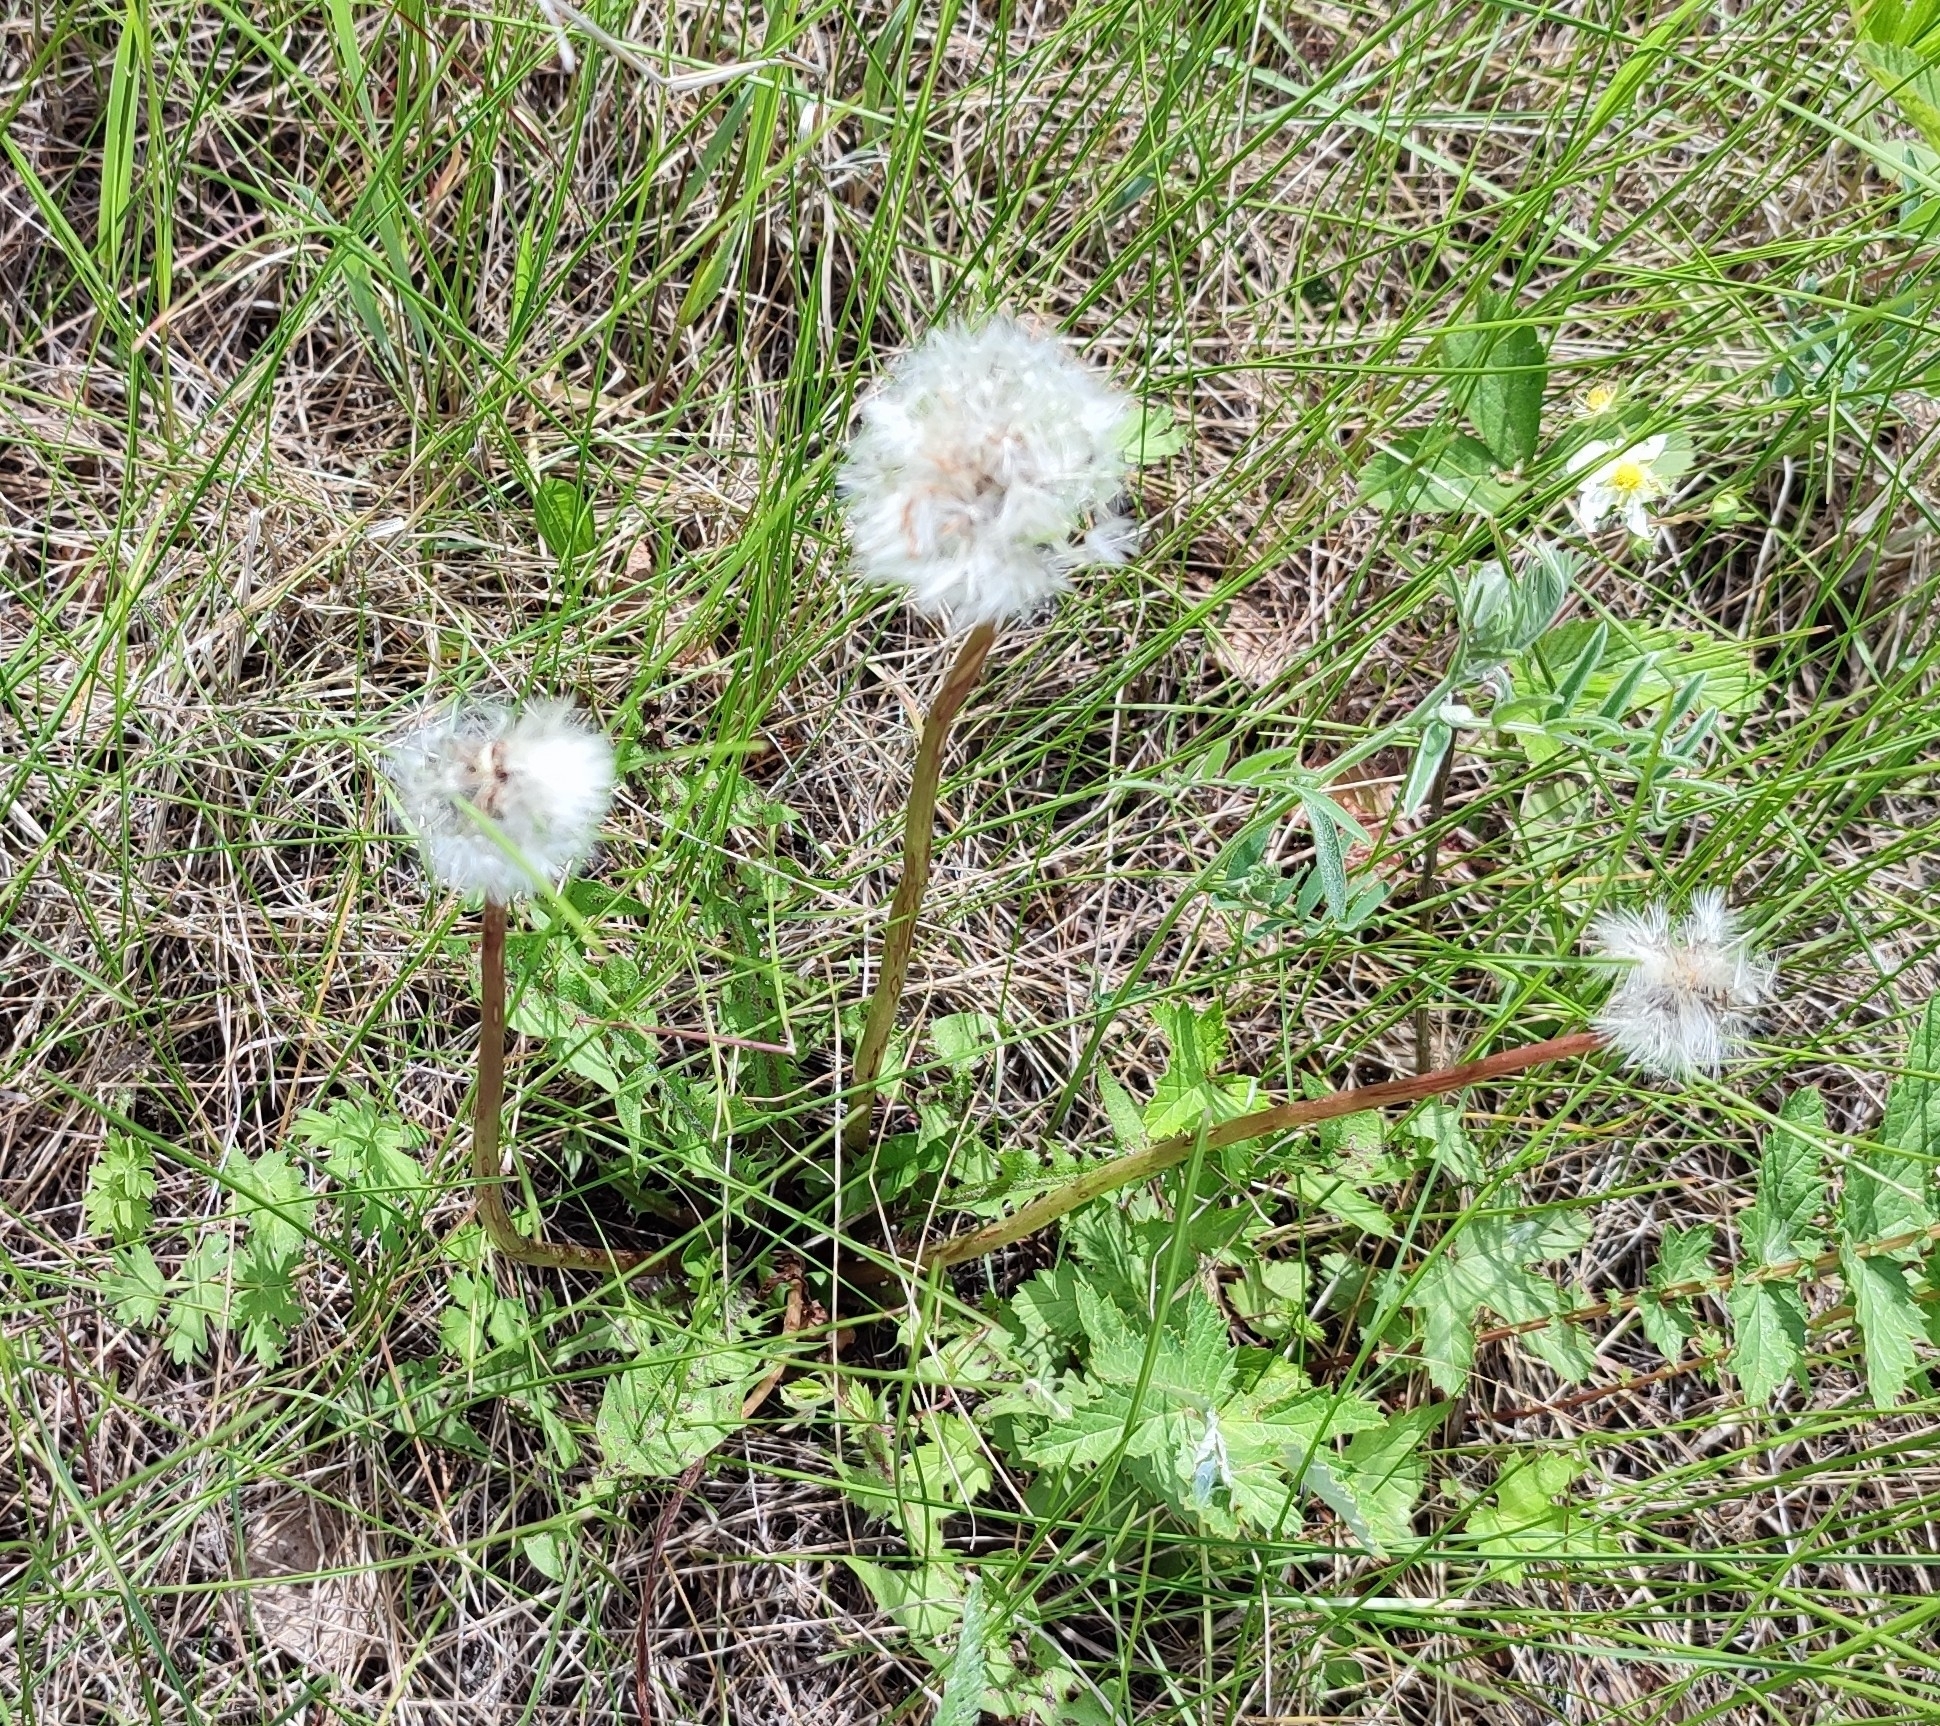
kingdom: Plantae
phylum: Tracheophyta
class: Magnoliopsida
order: Asterales
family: Asteraceae
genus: Taraxacum
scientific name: Taraxacum officinale
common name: Common dandelion
